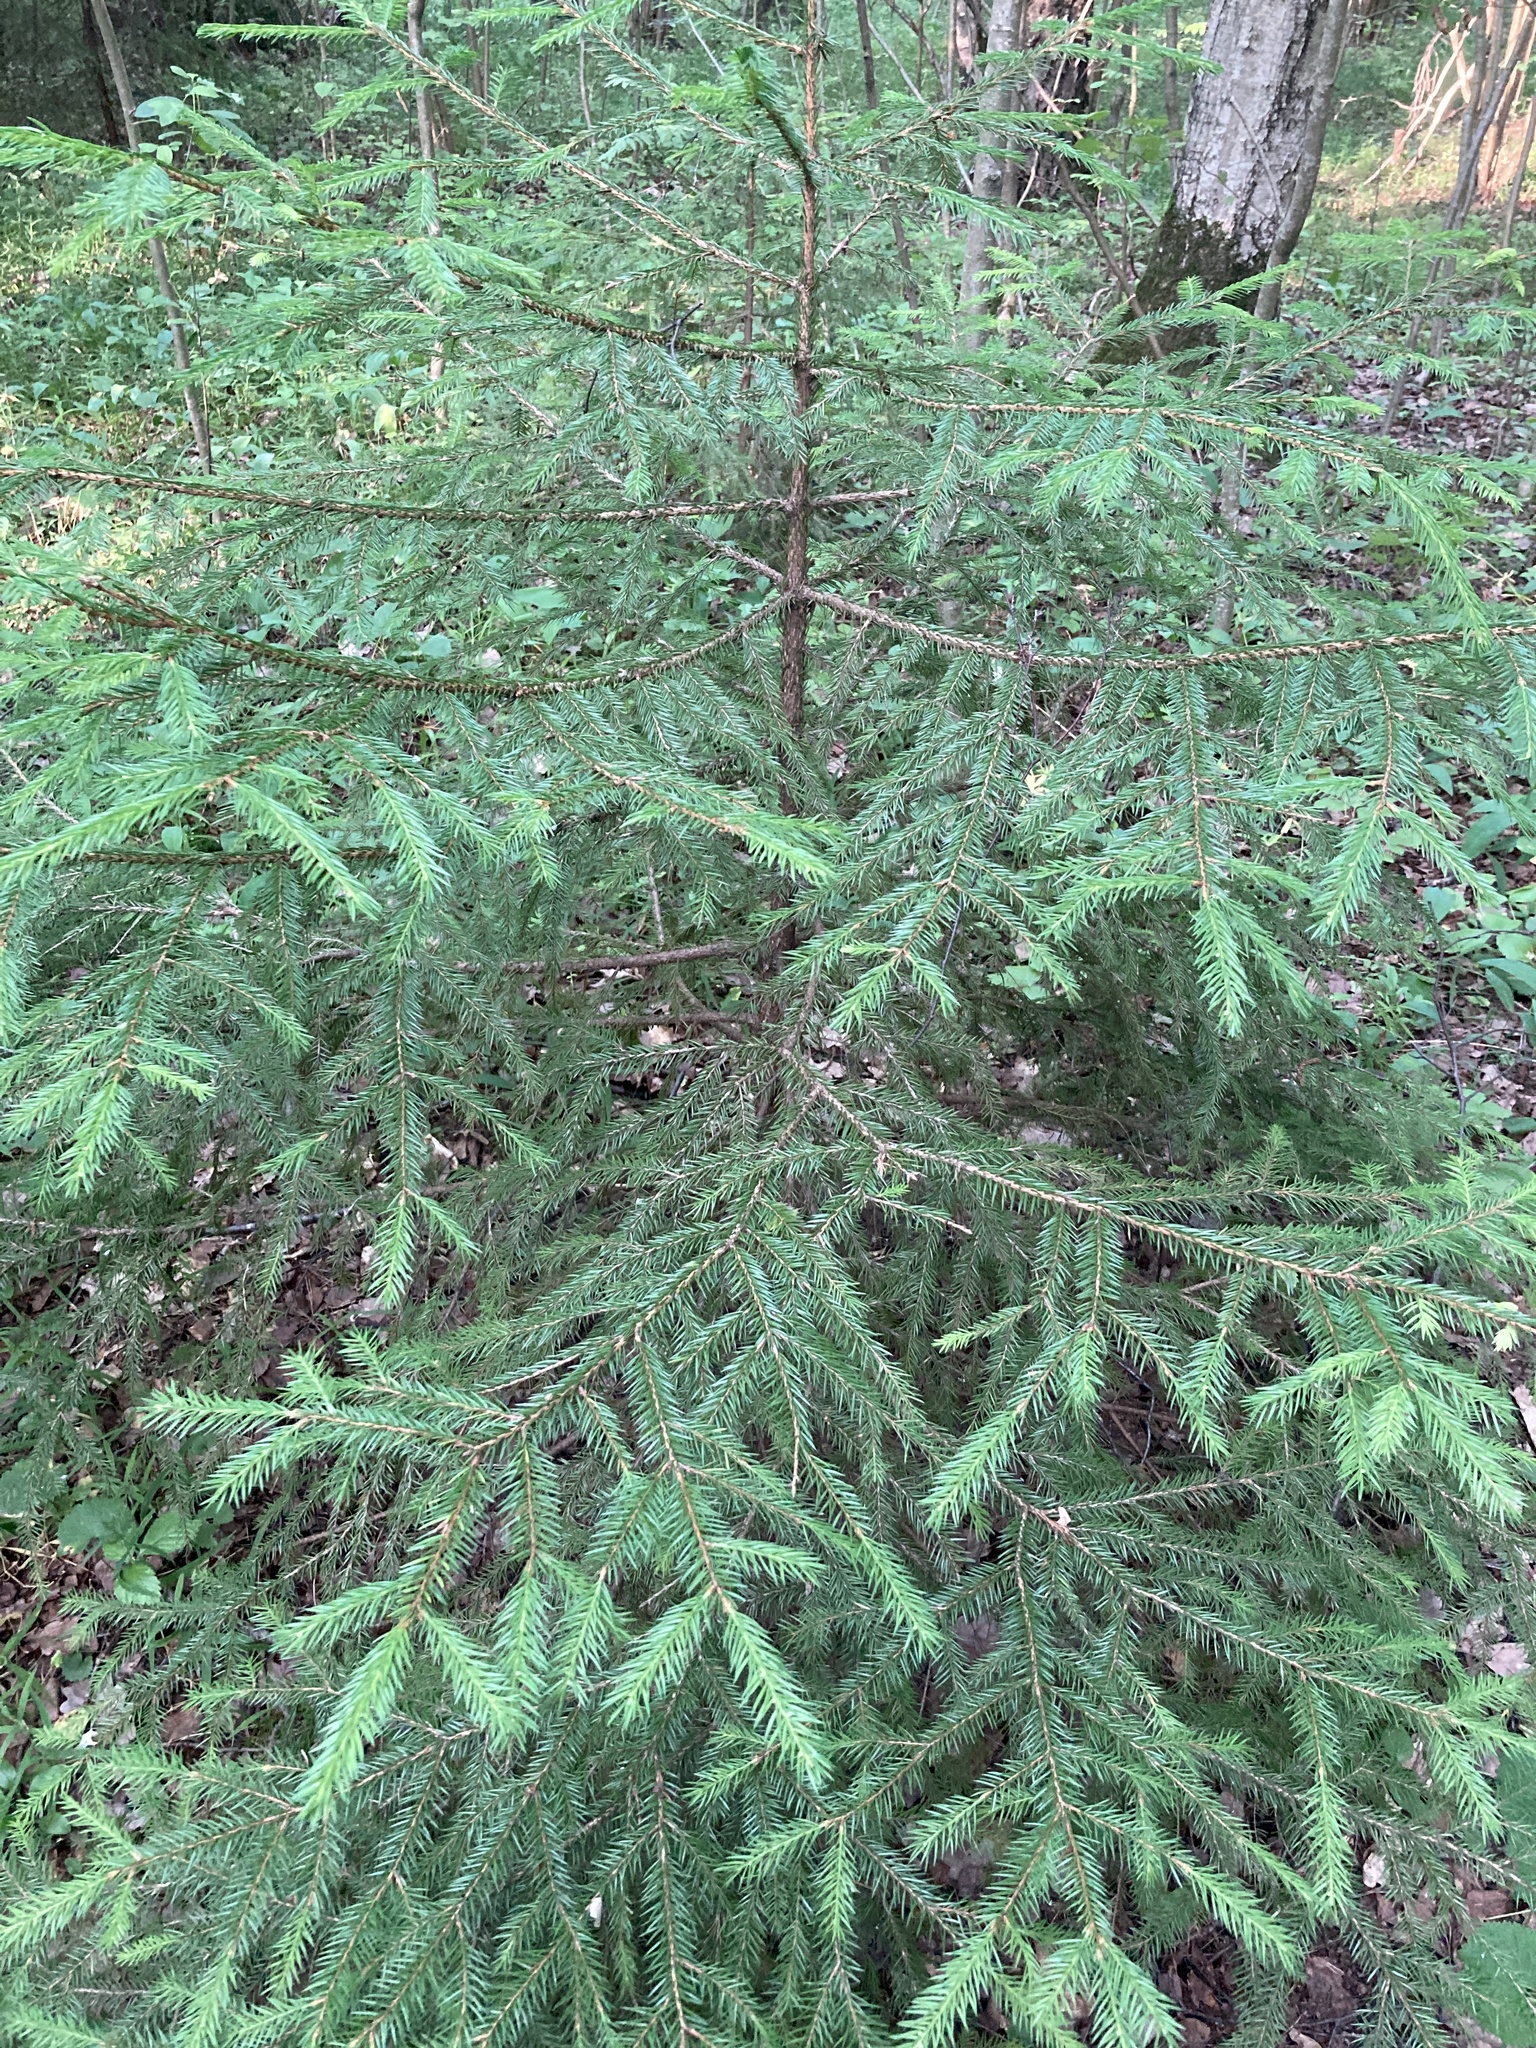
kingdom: Plantae
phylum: Tracheophyta
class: Pinopsida
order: Pinales
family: Pinaceae
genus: Picea
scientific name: Picea abies
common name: Norway spruce
